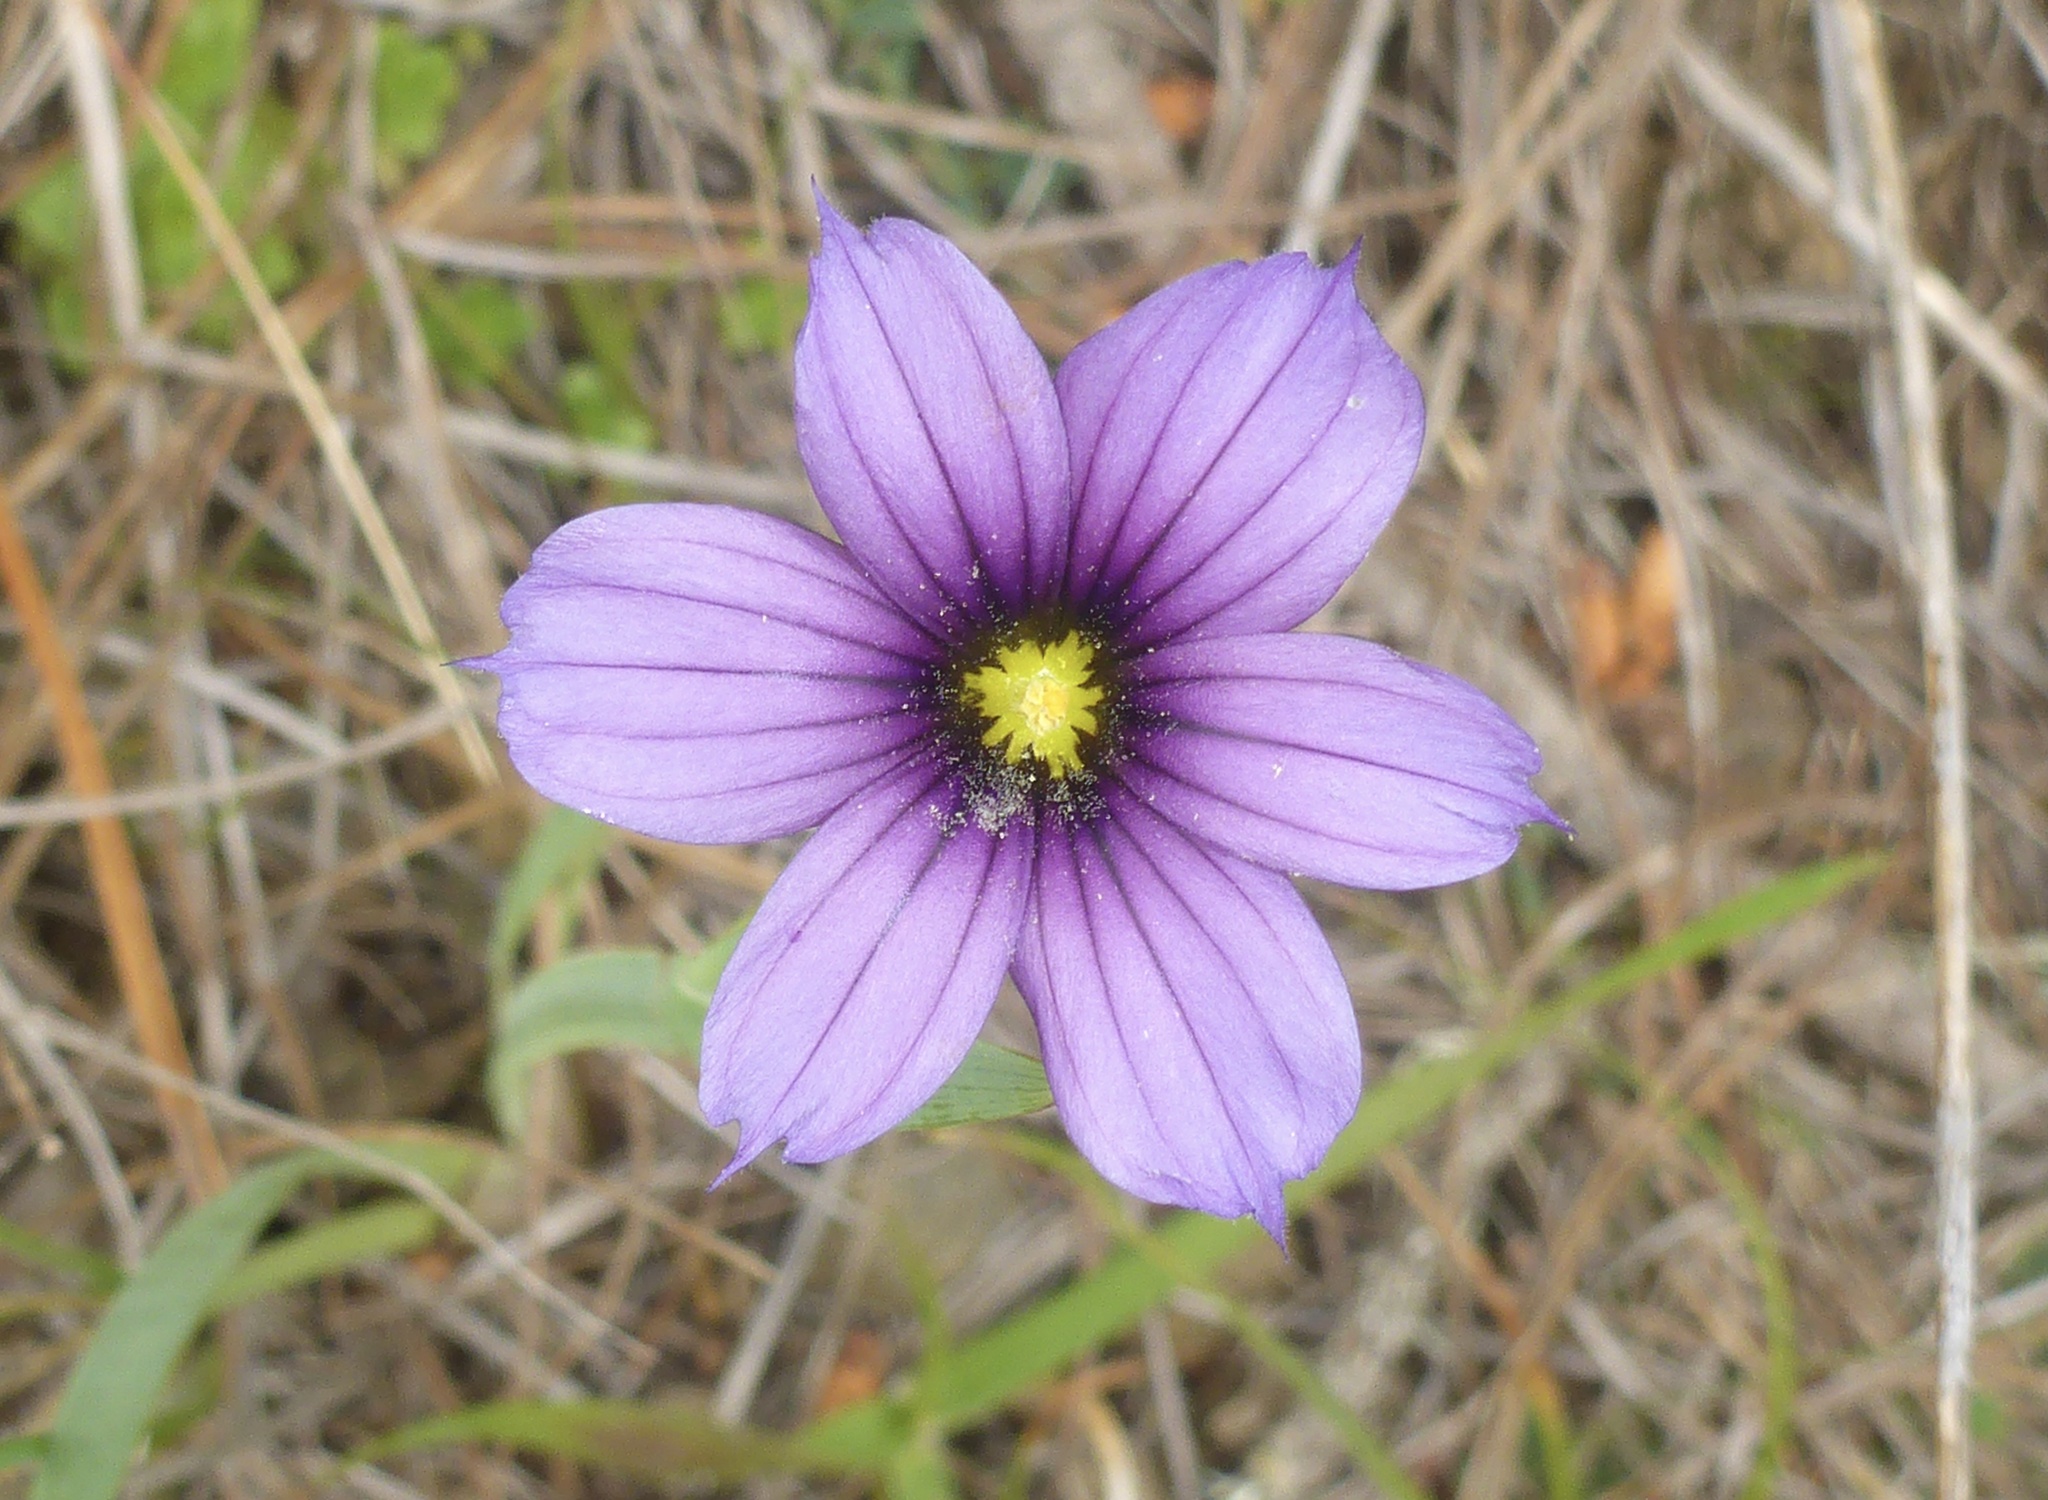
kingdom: Plantae
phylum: Tracheophyta
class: Liliopsida
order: Asparagales
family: Iridaceae
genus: Sisyrinchium
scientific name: Sisyrinchium bellum
